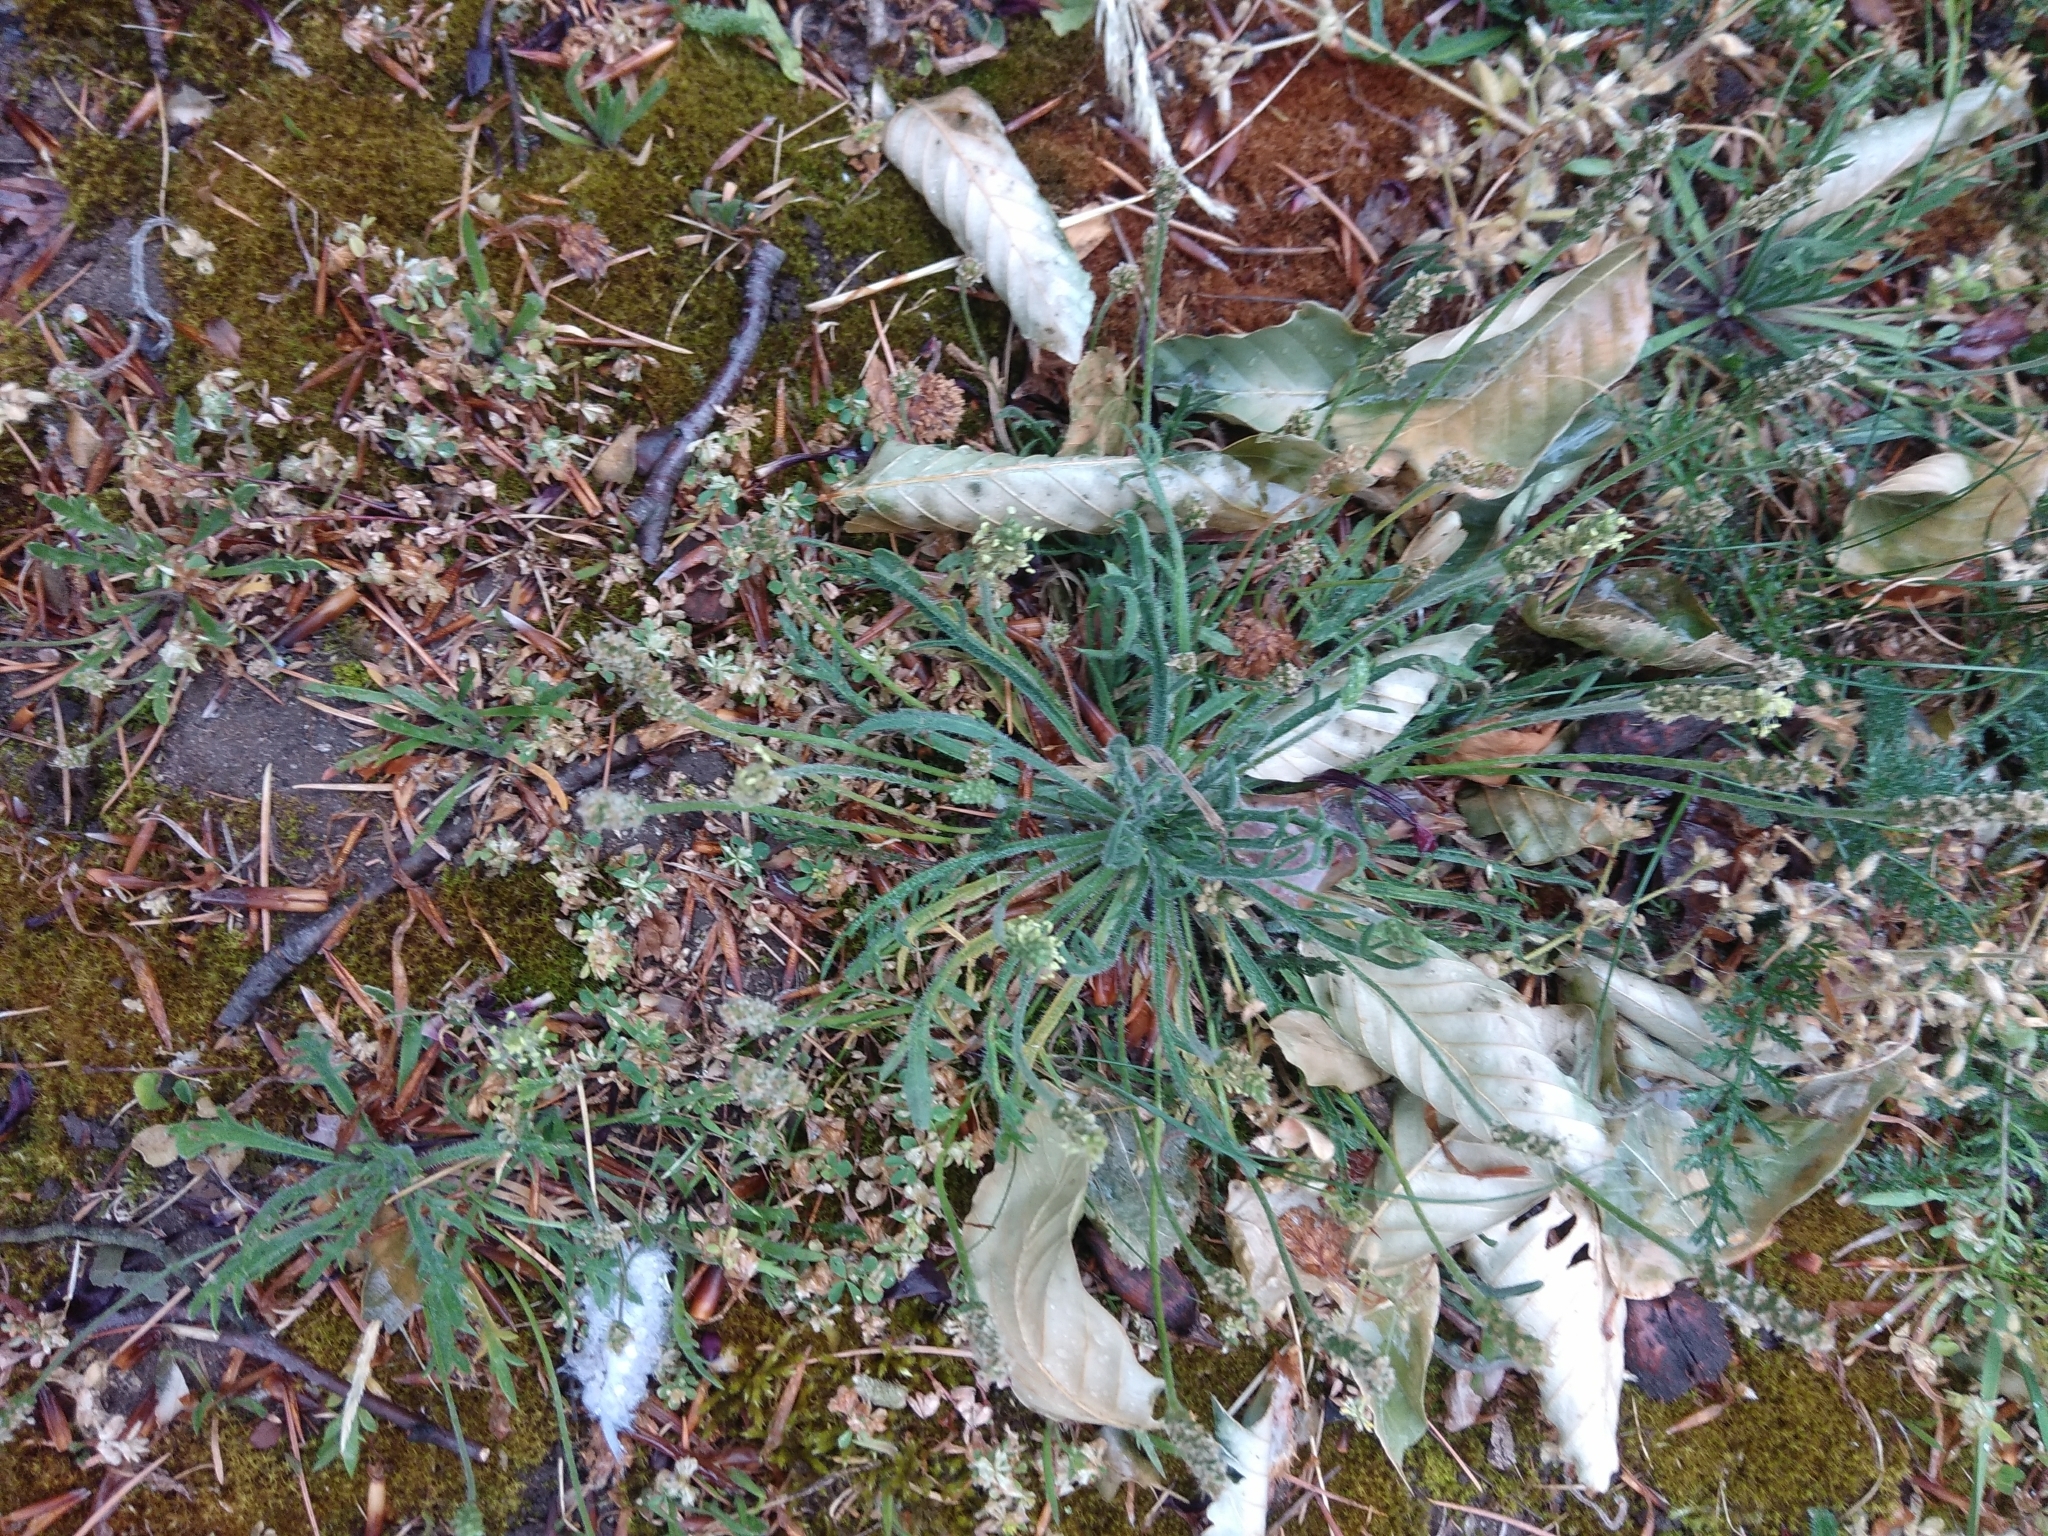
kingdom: Plantae
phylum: Tracheophyta
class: Magnoliopsida
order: Lamiales
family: Plantaginaceae
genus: Plantago
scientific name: Plantago coronopus
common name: Buck's-horn plantain
